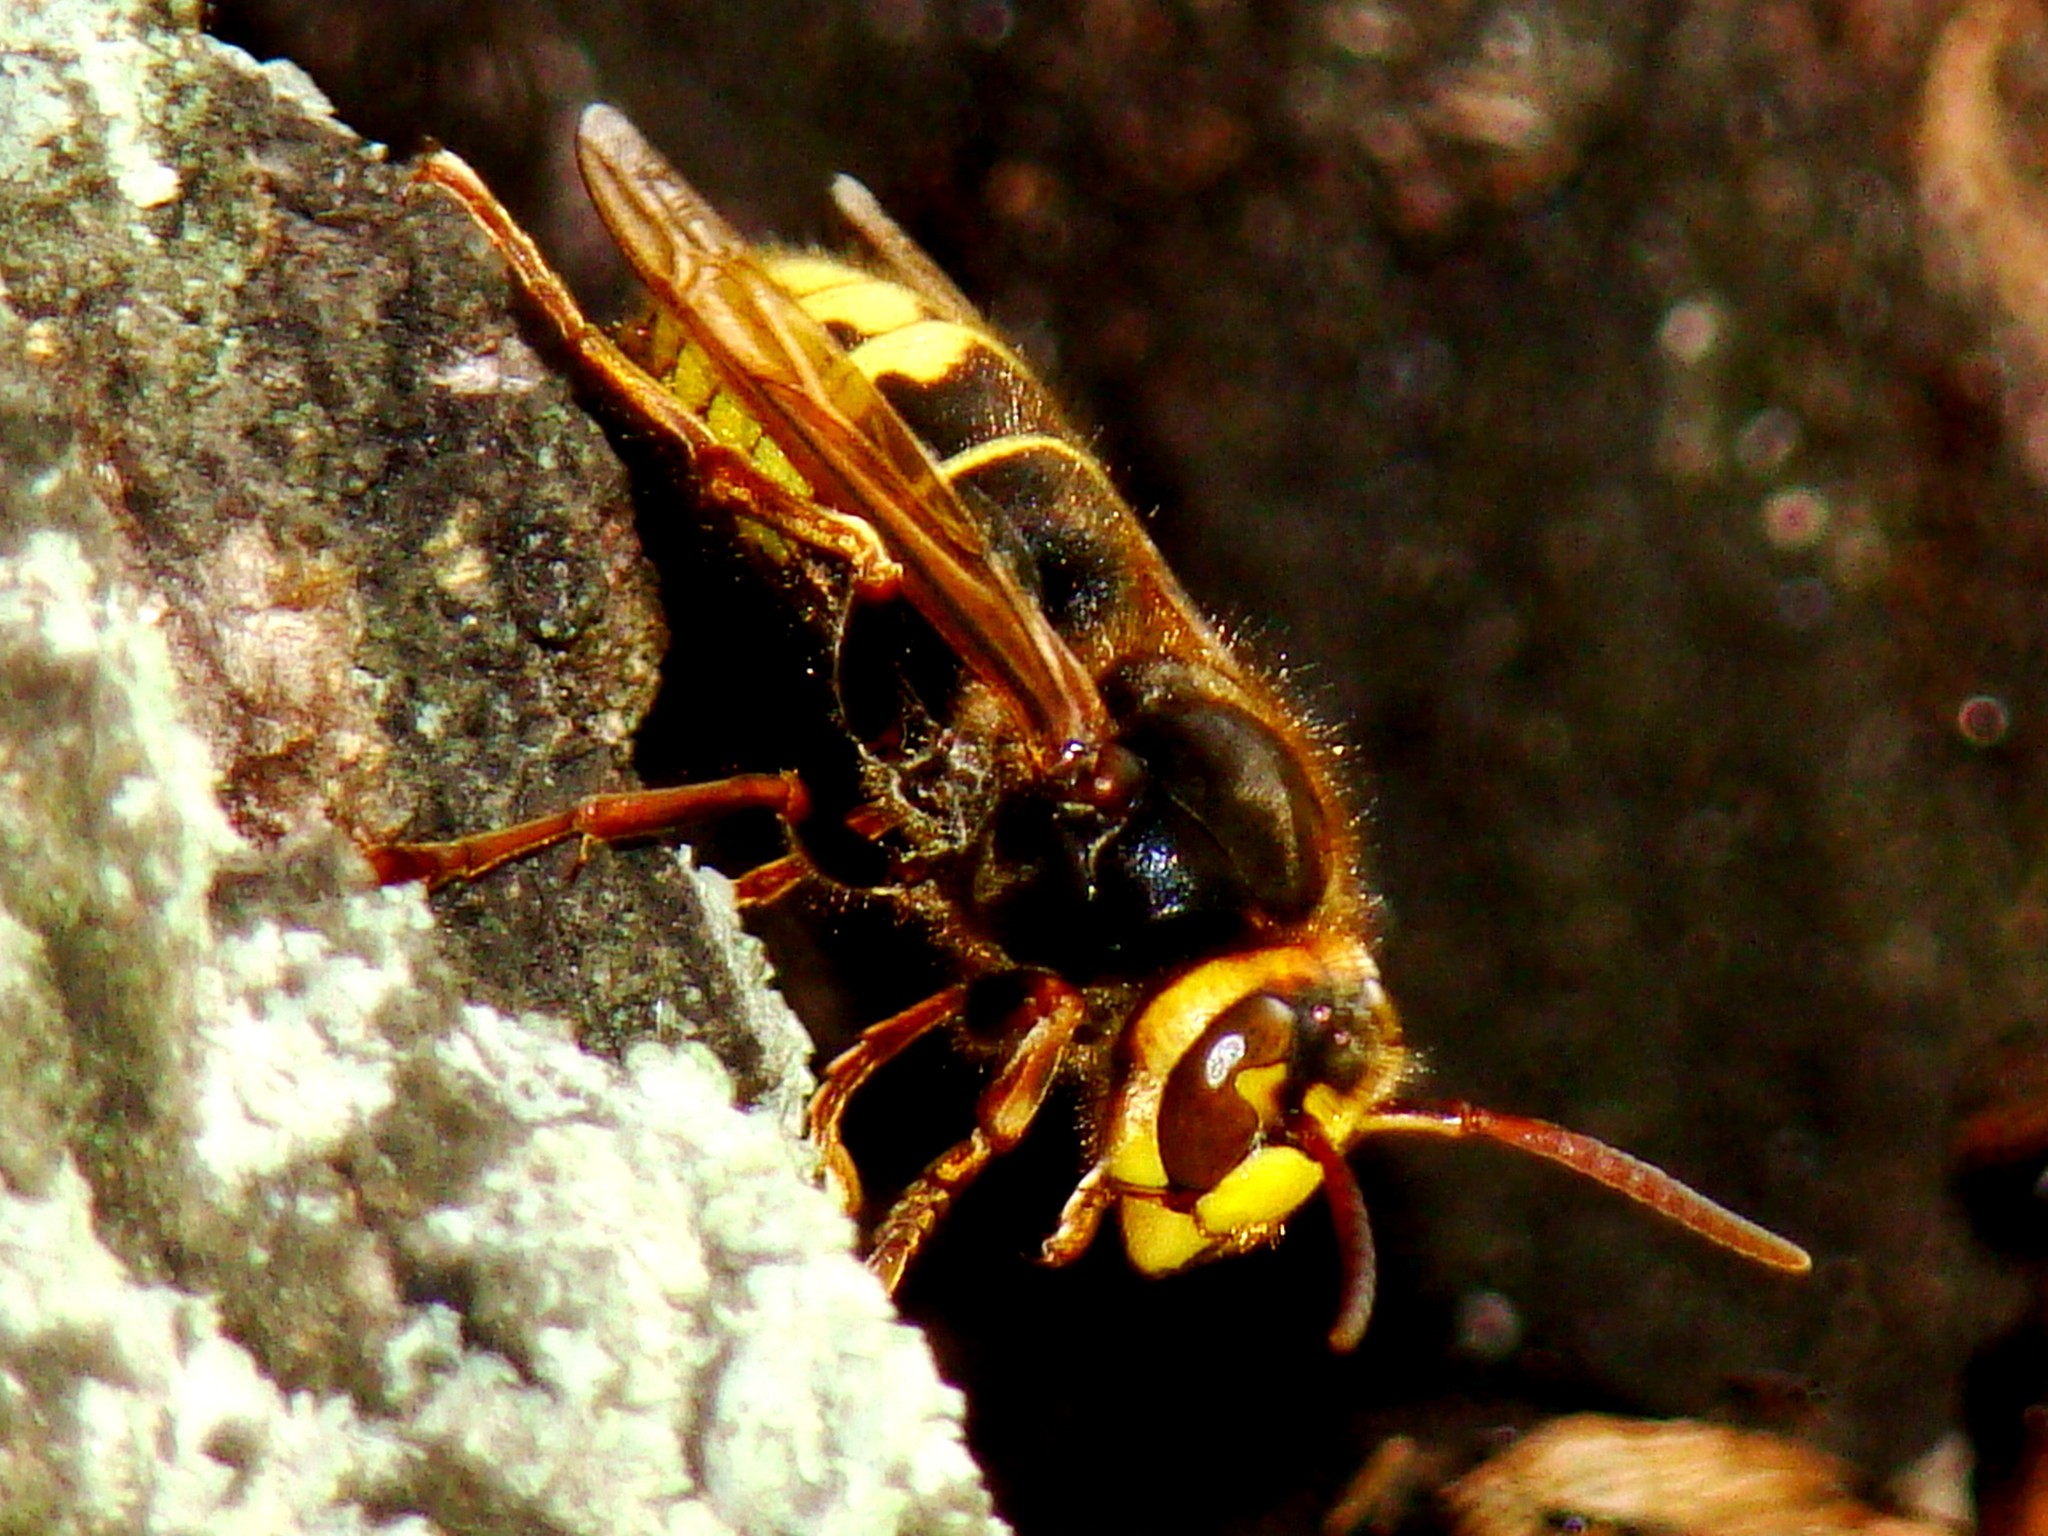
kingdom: Animalia
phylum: Arthropoda
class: Insecta
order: Hymenoptera
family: Vespidae
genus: Vespa
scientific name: Vespa crabro
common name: Hornet
